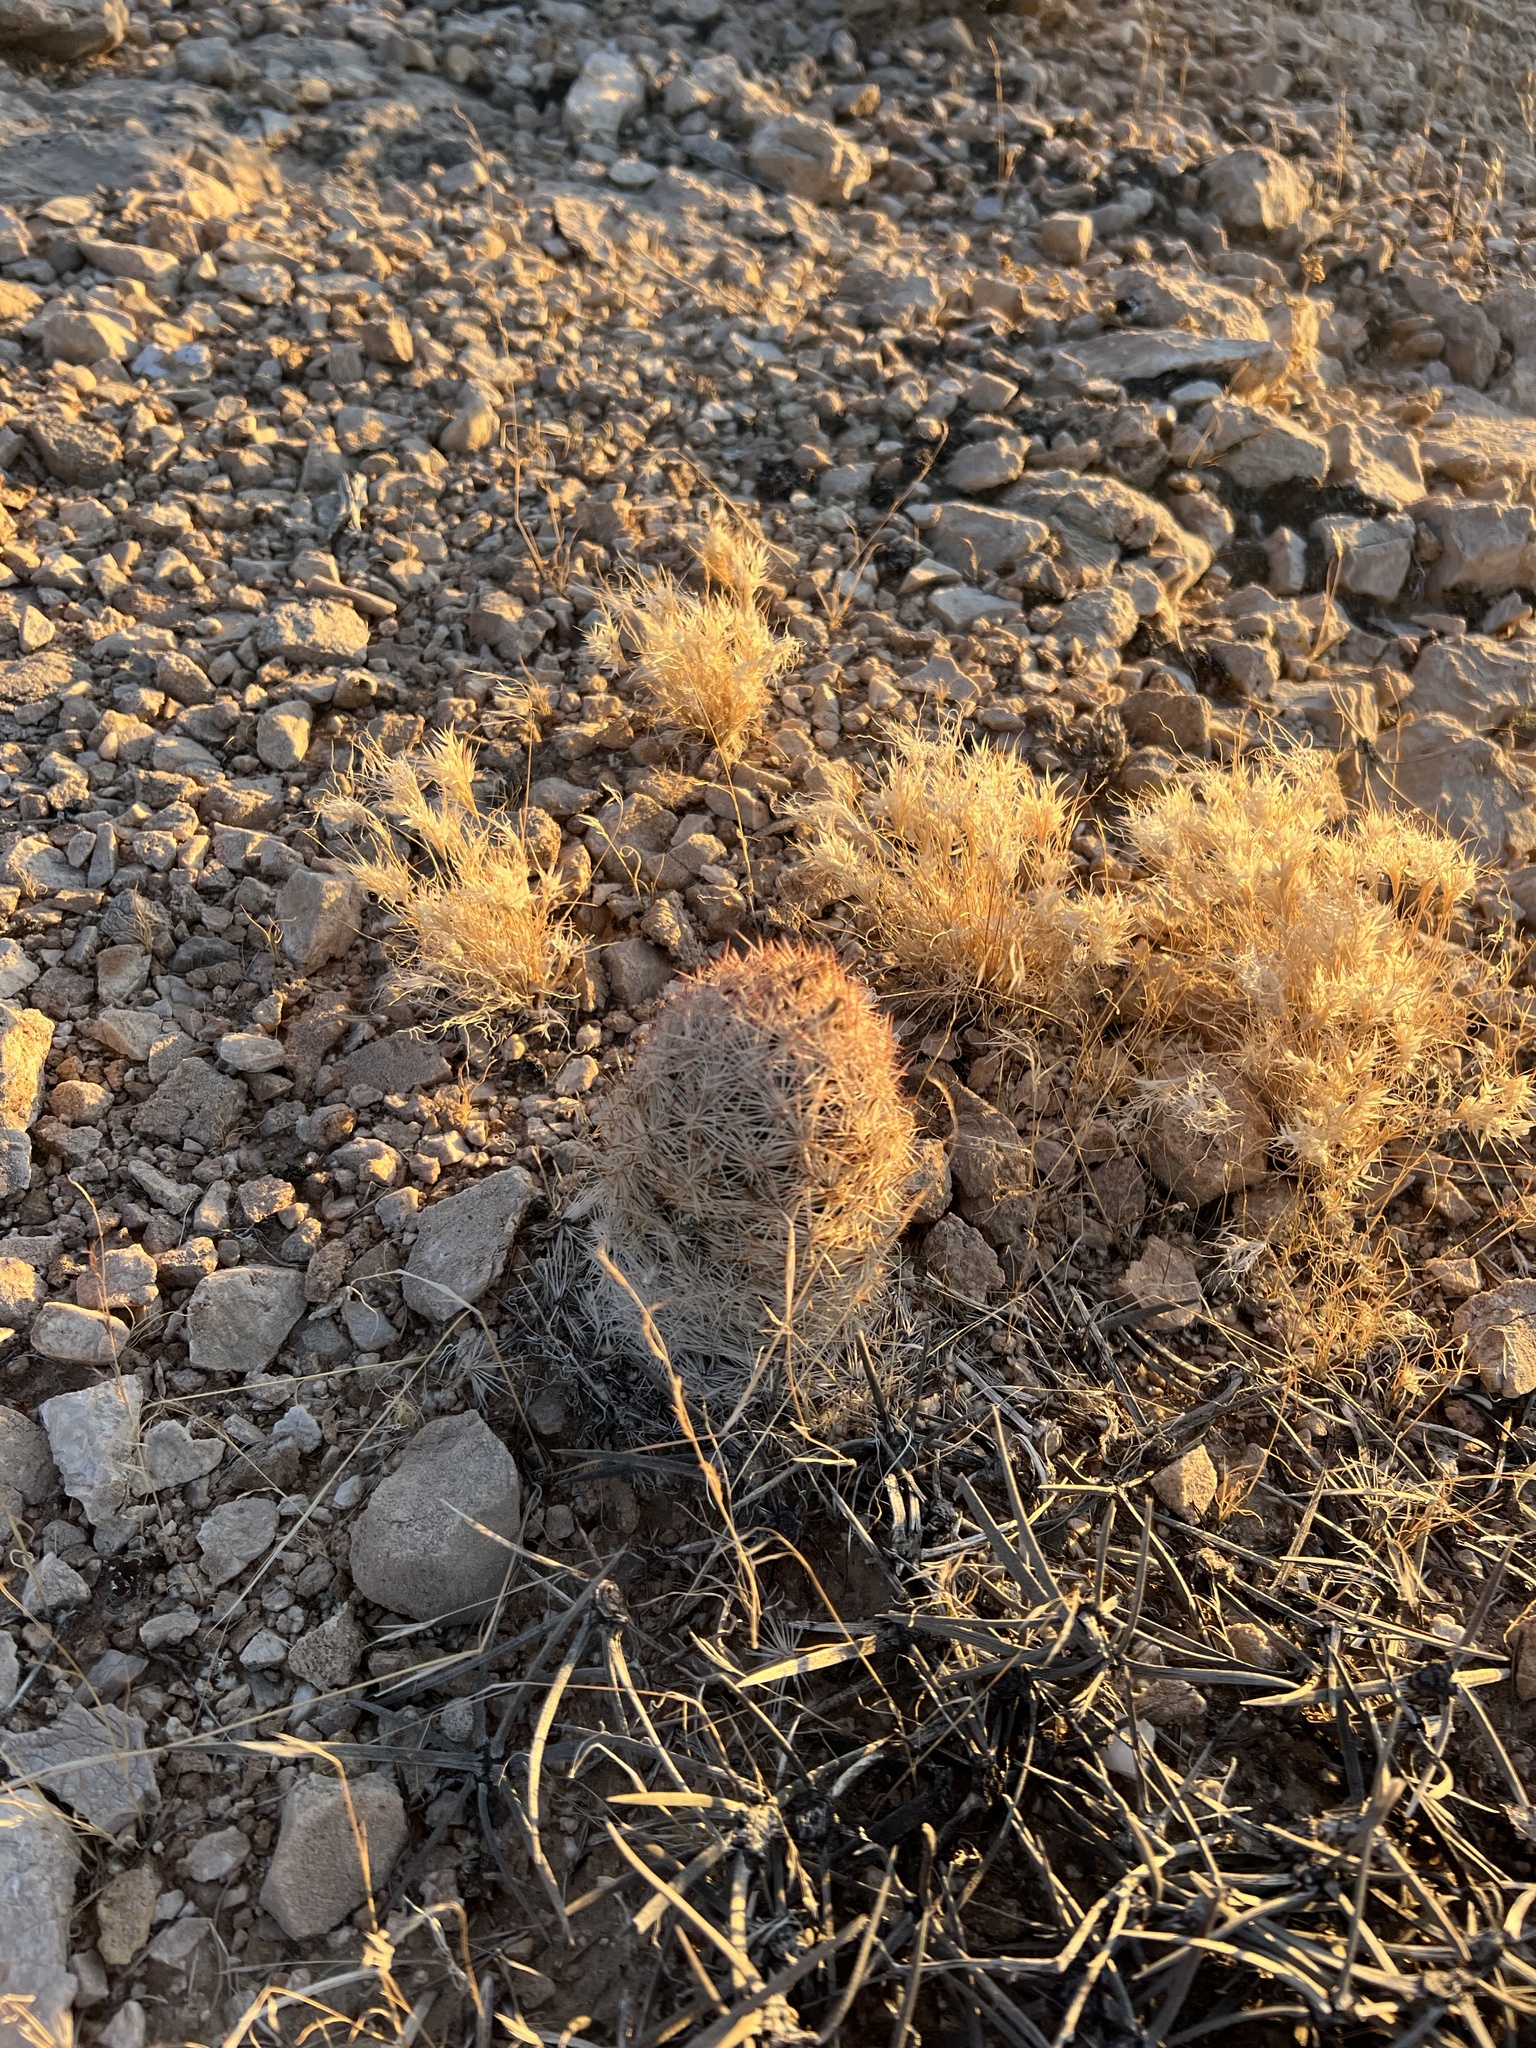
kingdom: Plantae
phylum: Tracheophyta
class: Magnoliopsida
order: Caryophyllales
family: Cactaceae
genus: Pelecyphora
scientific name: Pelecyphora dasyacantha
